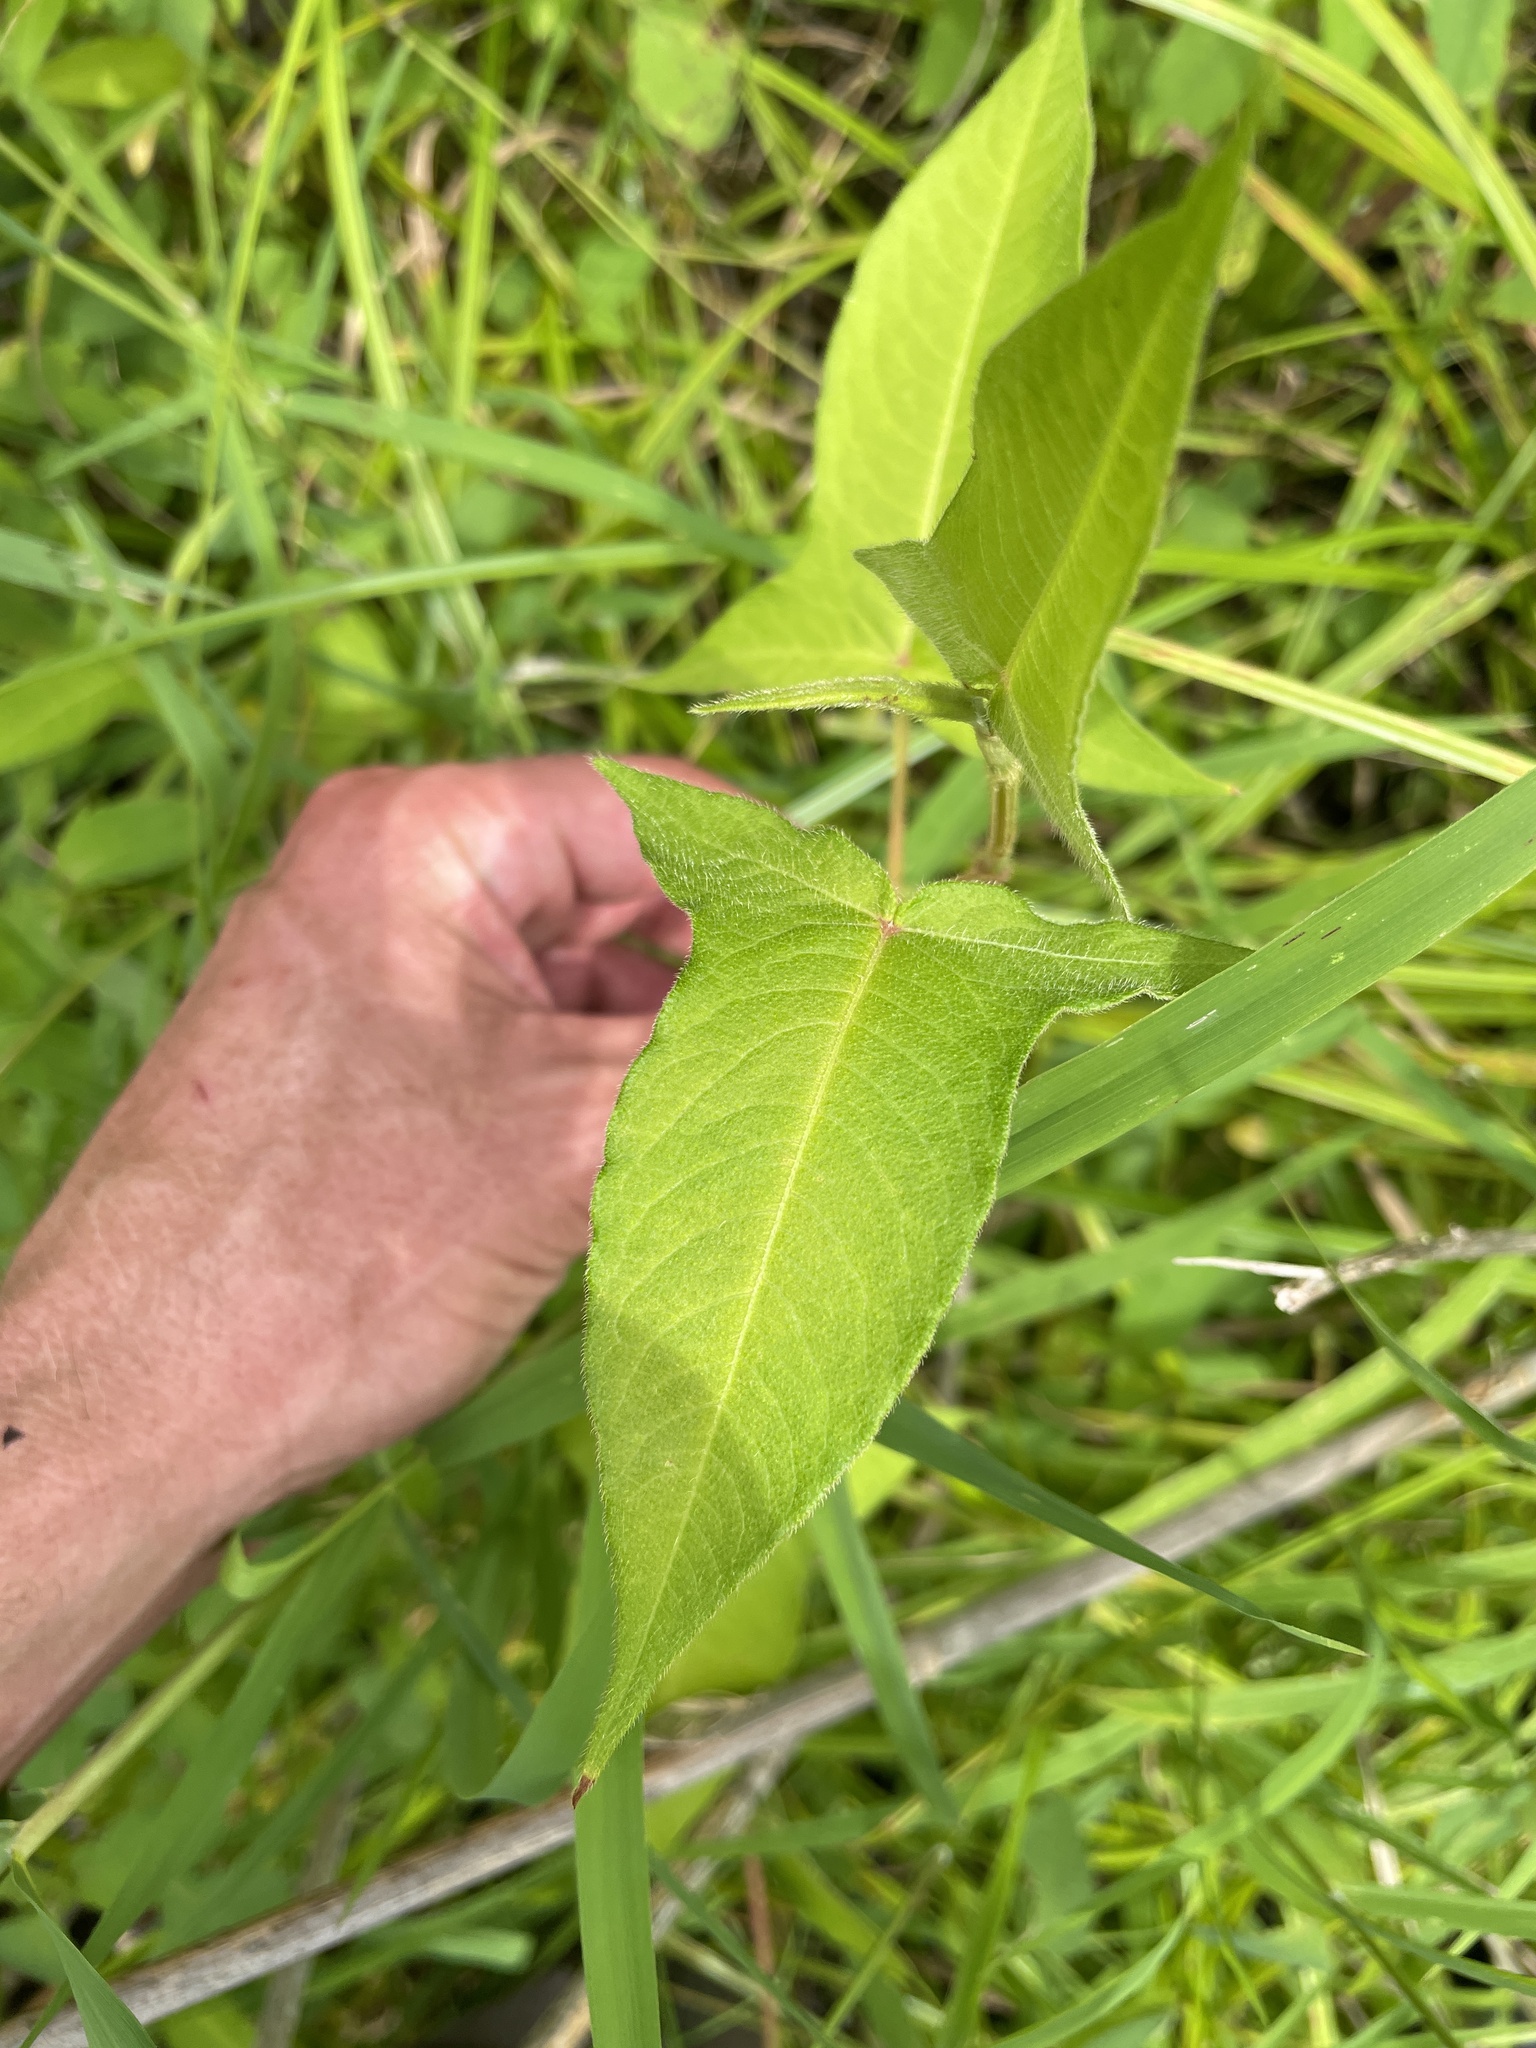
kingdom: Plantae
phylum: Tracheophyta
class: Magnoliopsida
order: Caryophyllales
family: Polygonaceae
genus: Persicaria
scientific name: Persicaria arifolia
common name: Halberd-leaved tear-thumb
